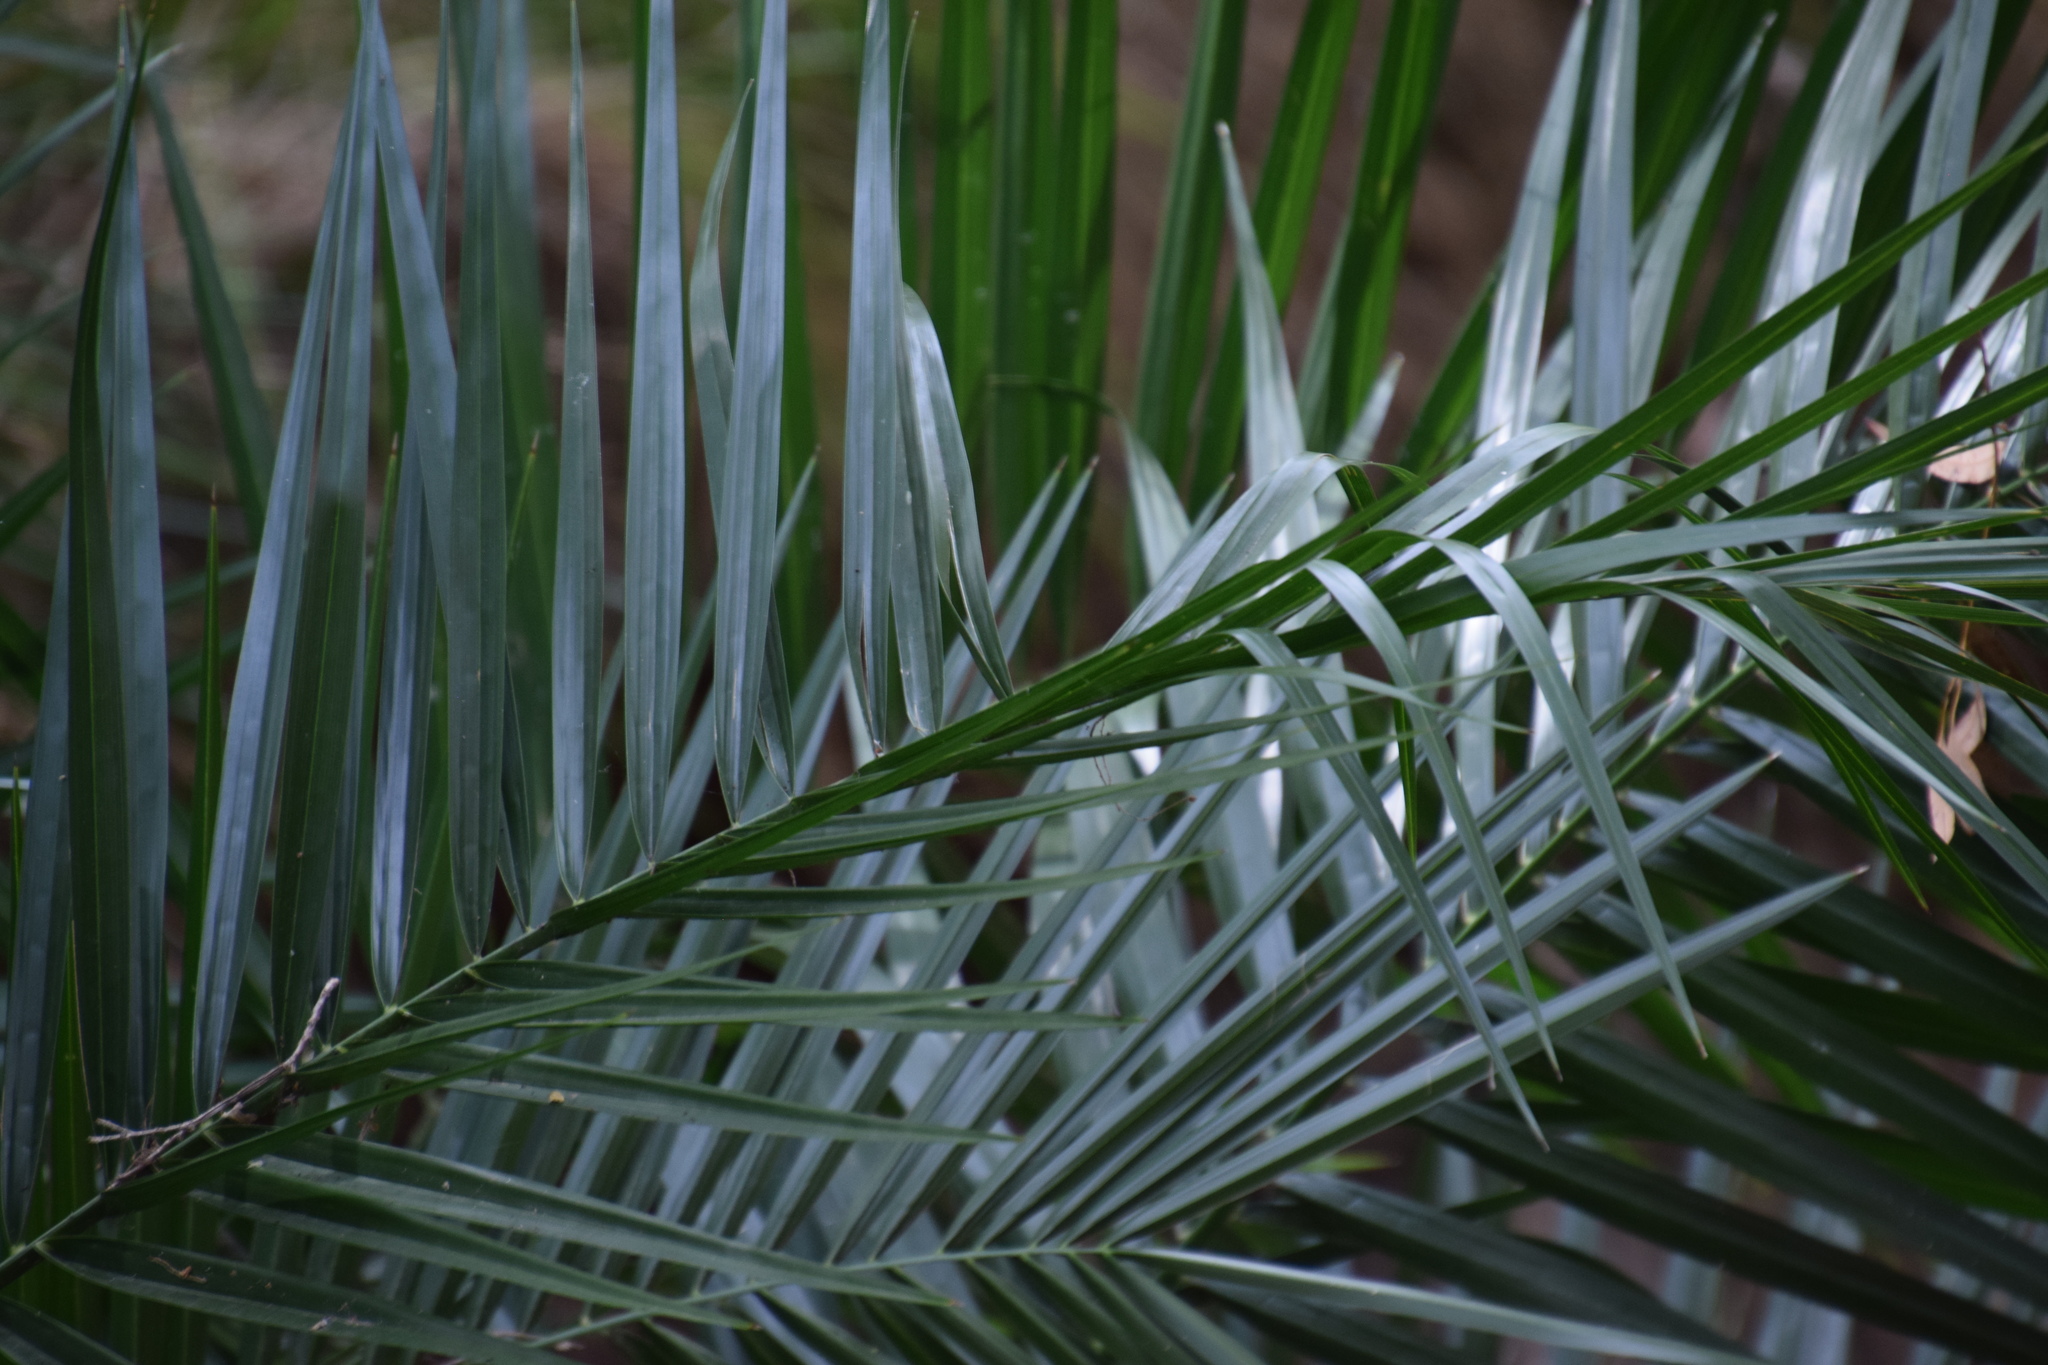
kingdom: Plantae
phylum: Tracheophyta
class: Liliopsida
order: Arecales
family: Arecaceae
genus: Phoenix
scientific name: Phoenix canariensis
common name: Canary island date palm
